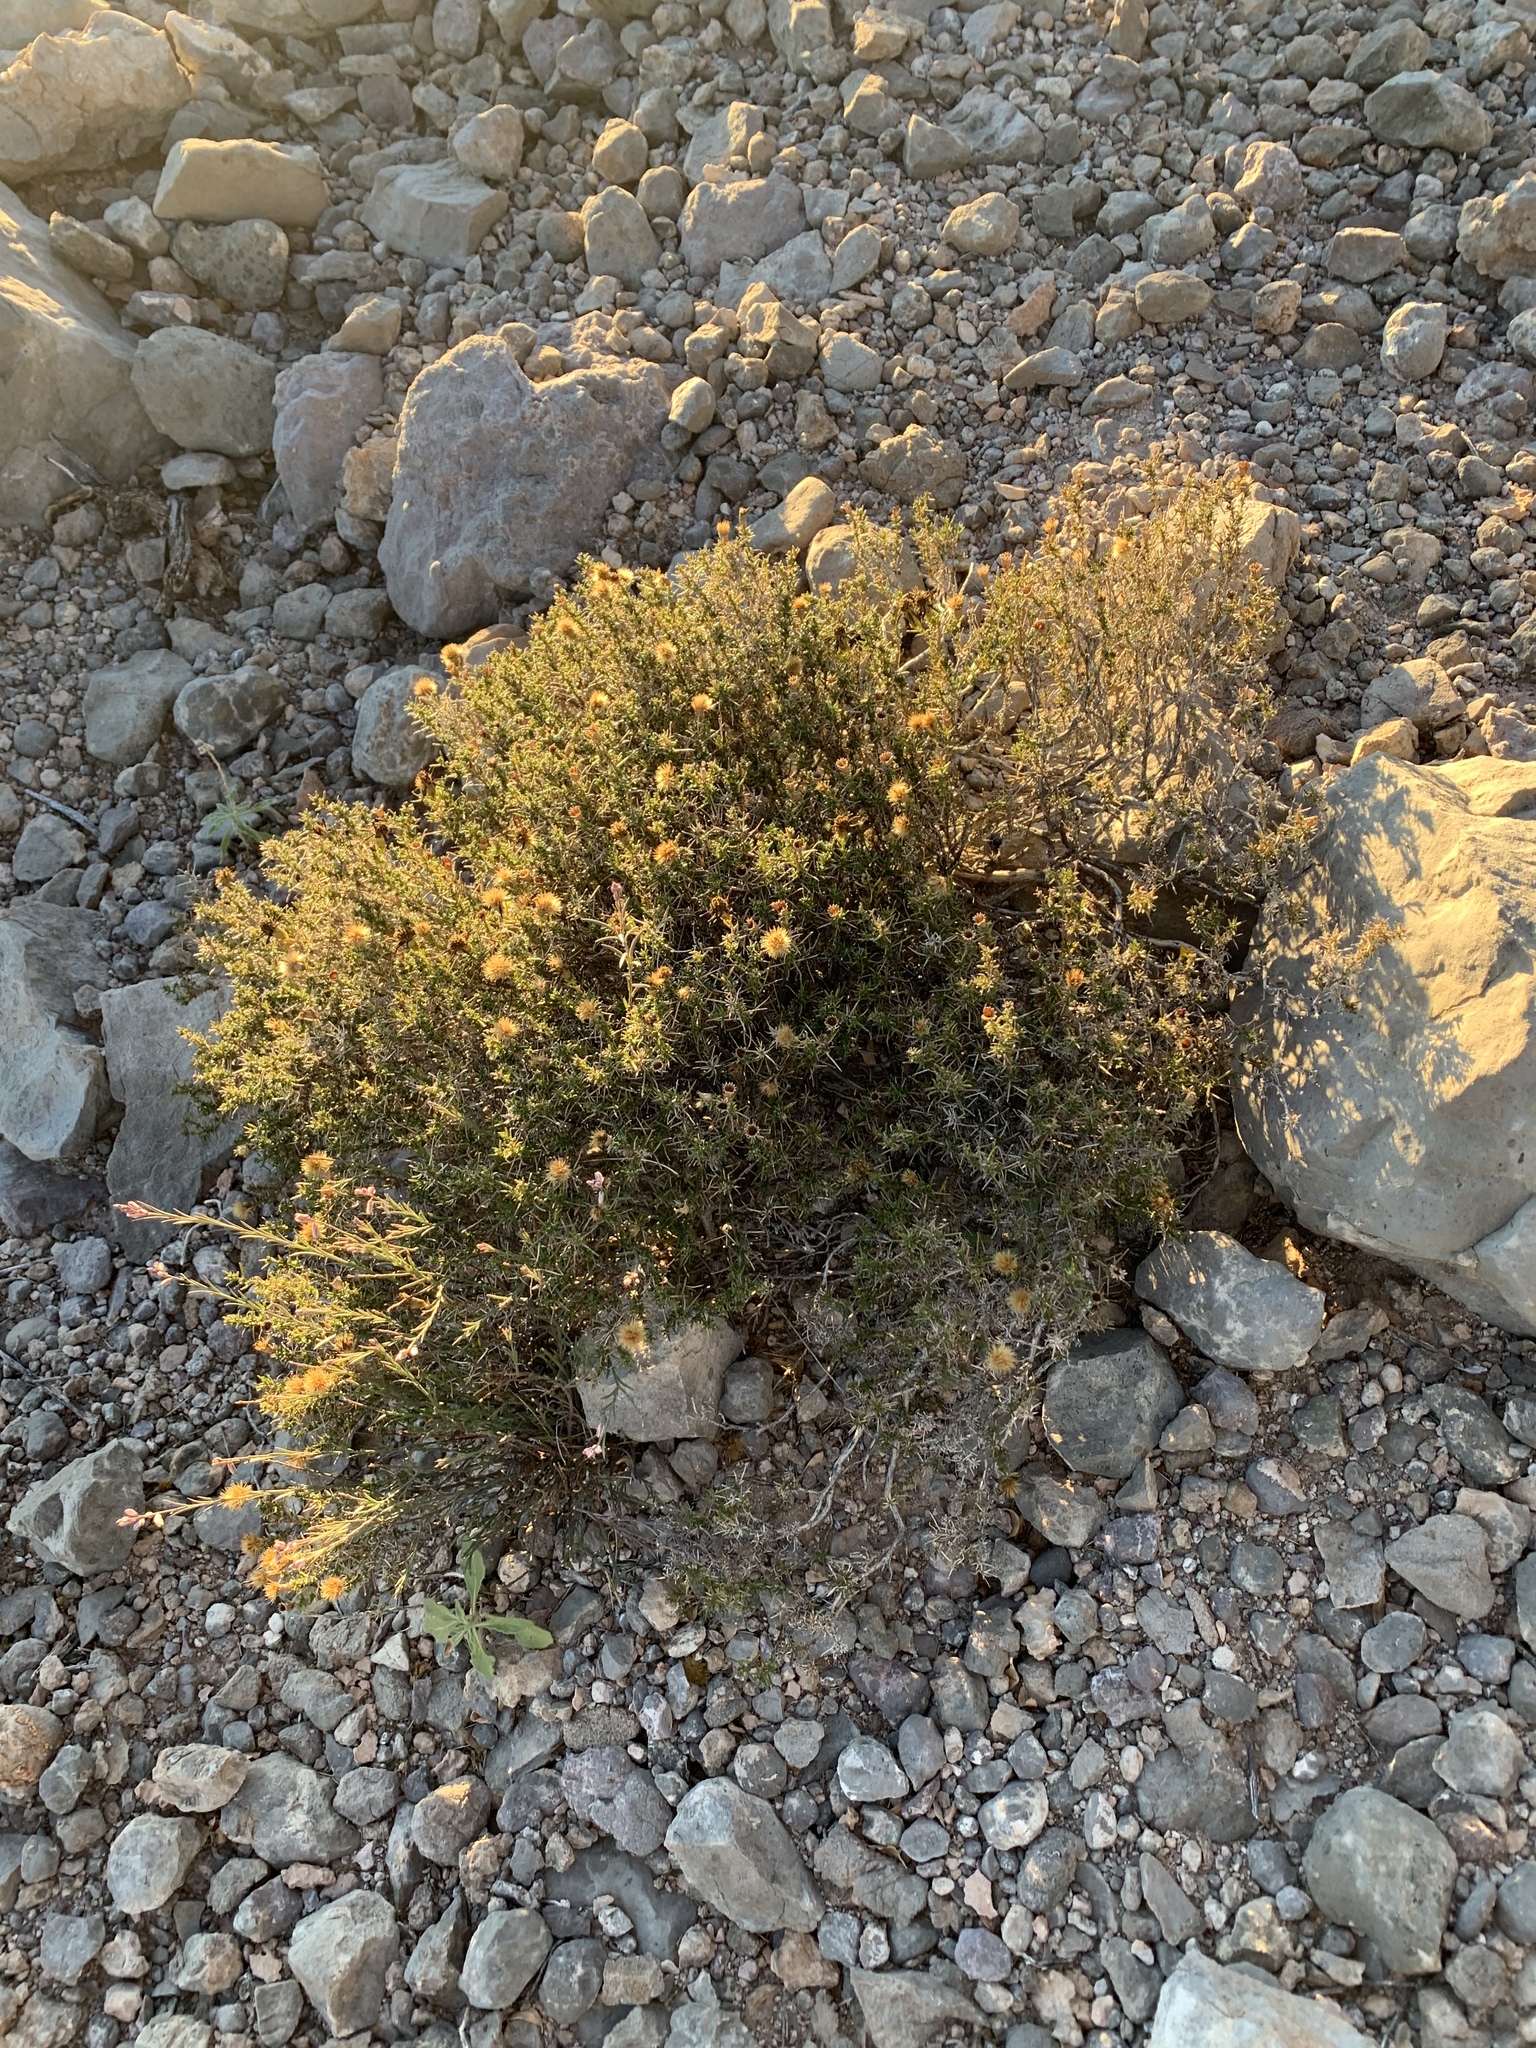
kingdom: Plantae
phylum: Tracheophyta
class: Magnoliopsida
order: Asterales
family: Asteraceae
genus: Thymophylla
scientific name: Thymophylla acerosa
